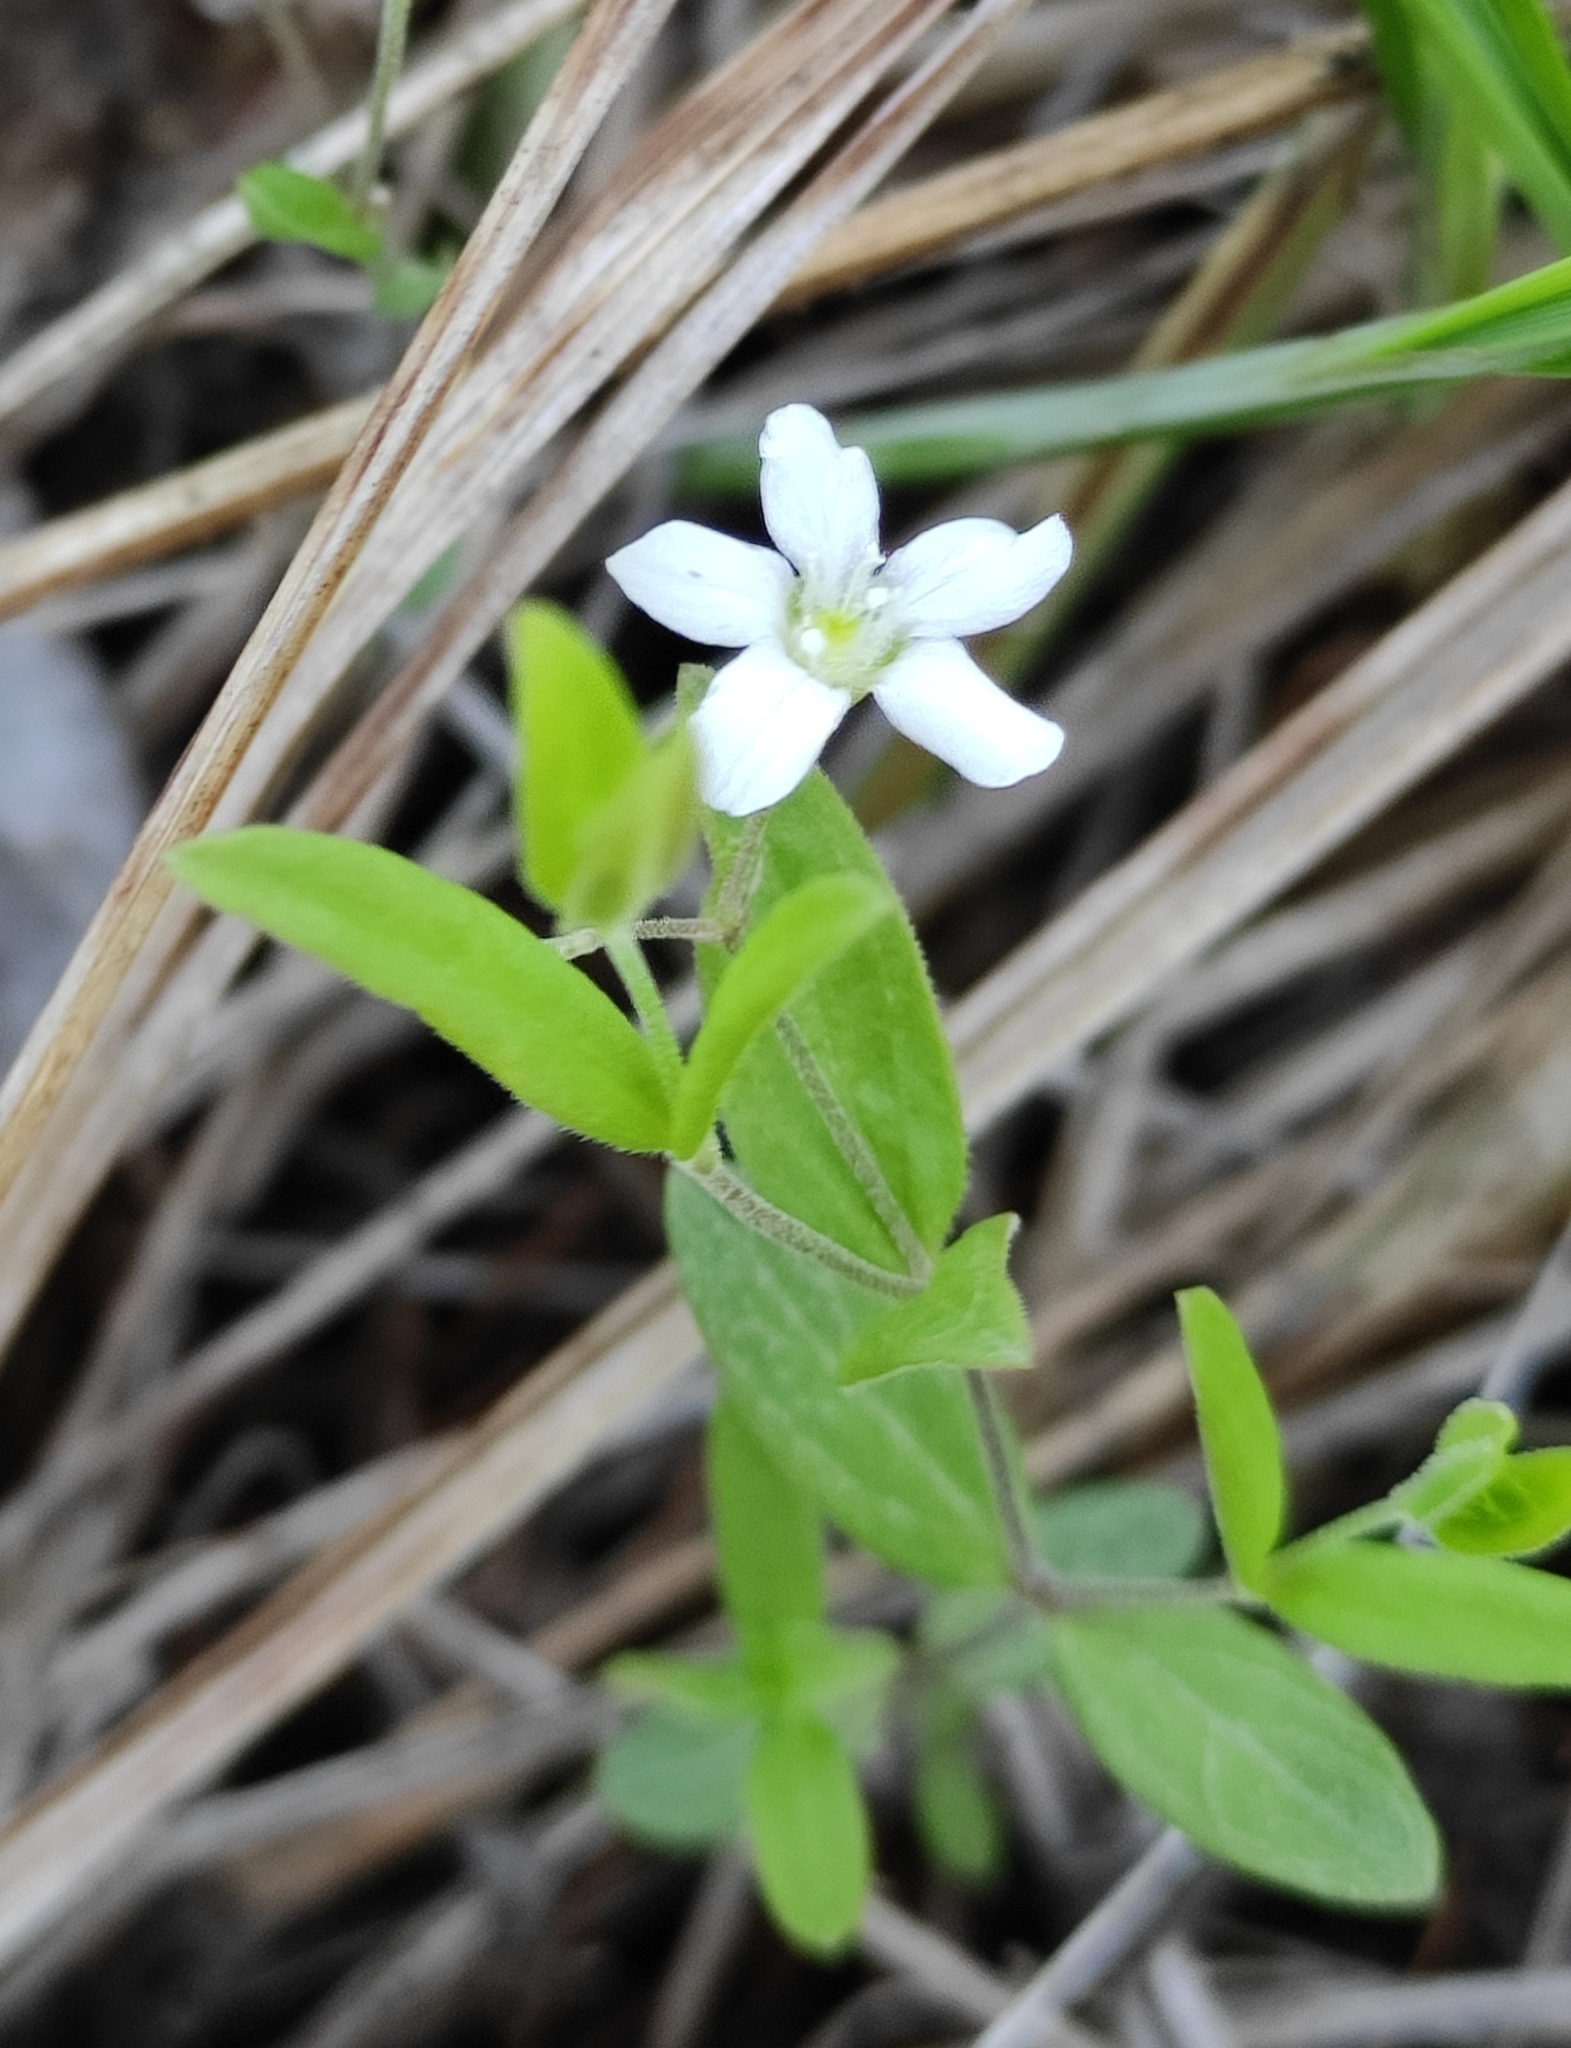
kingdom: Plantae
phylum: Tracheophyta
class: Magnoliopsida
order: Caryophyllales
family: Caryophyllaceae
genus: Moehringia
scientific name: Moehringia lateriflora
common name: Blunt-leaved sandwort
